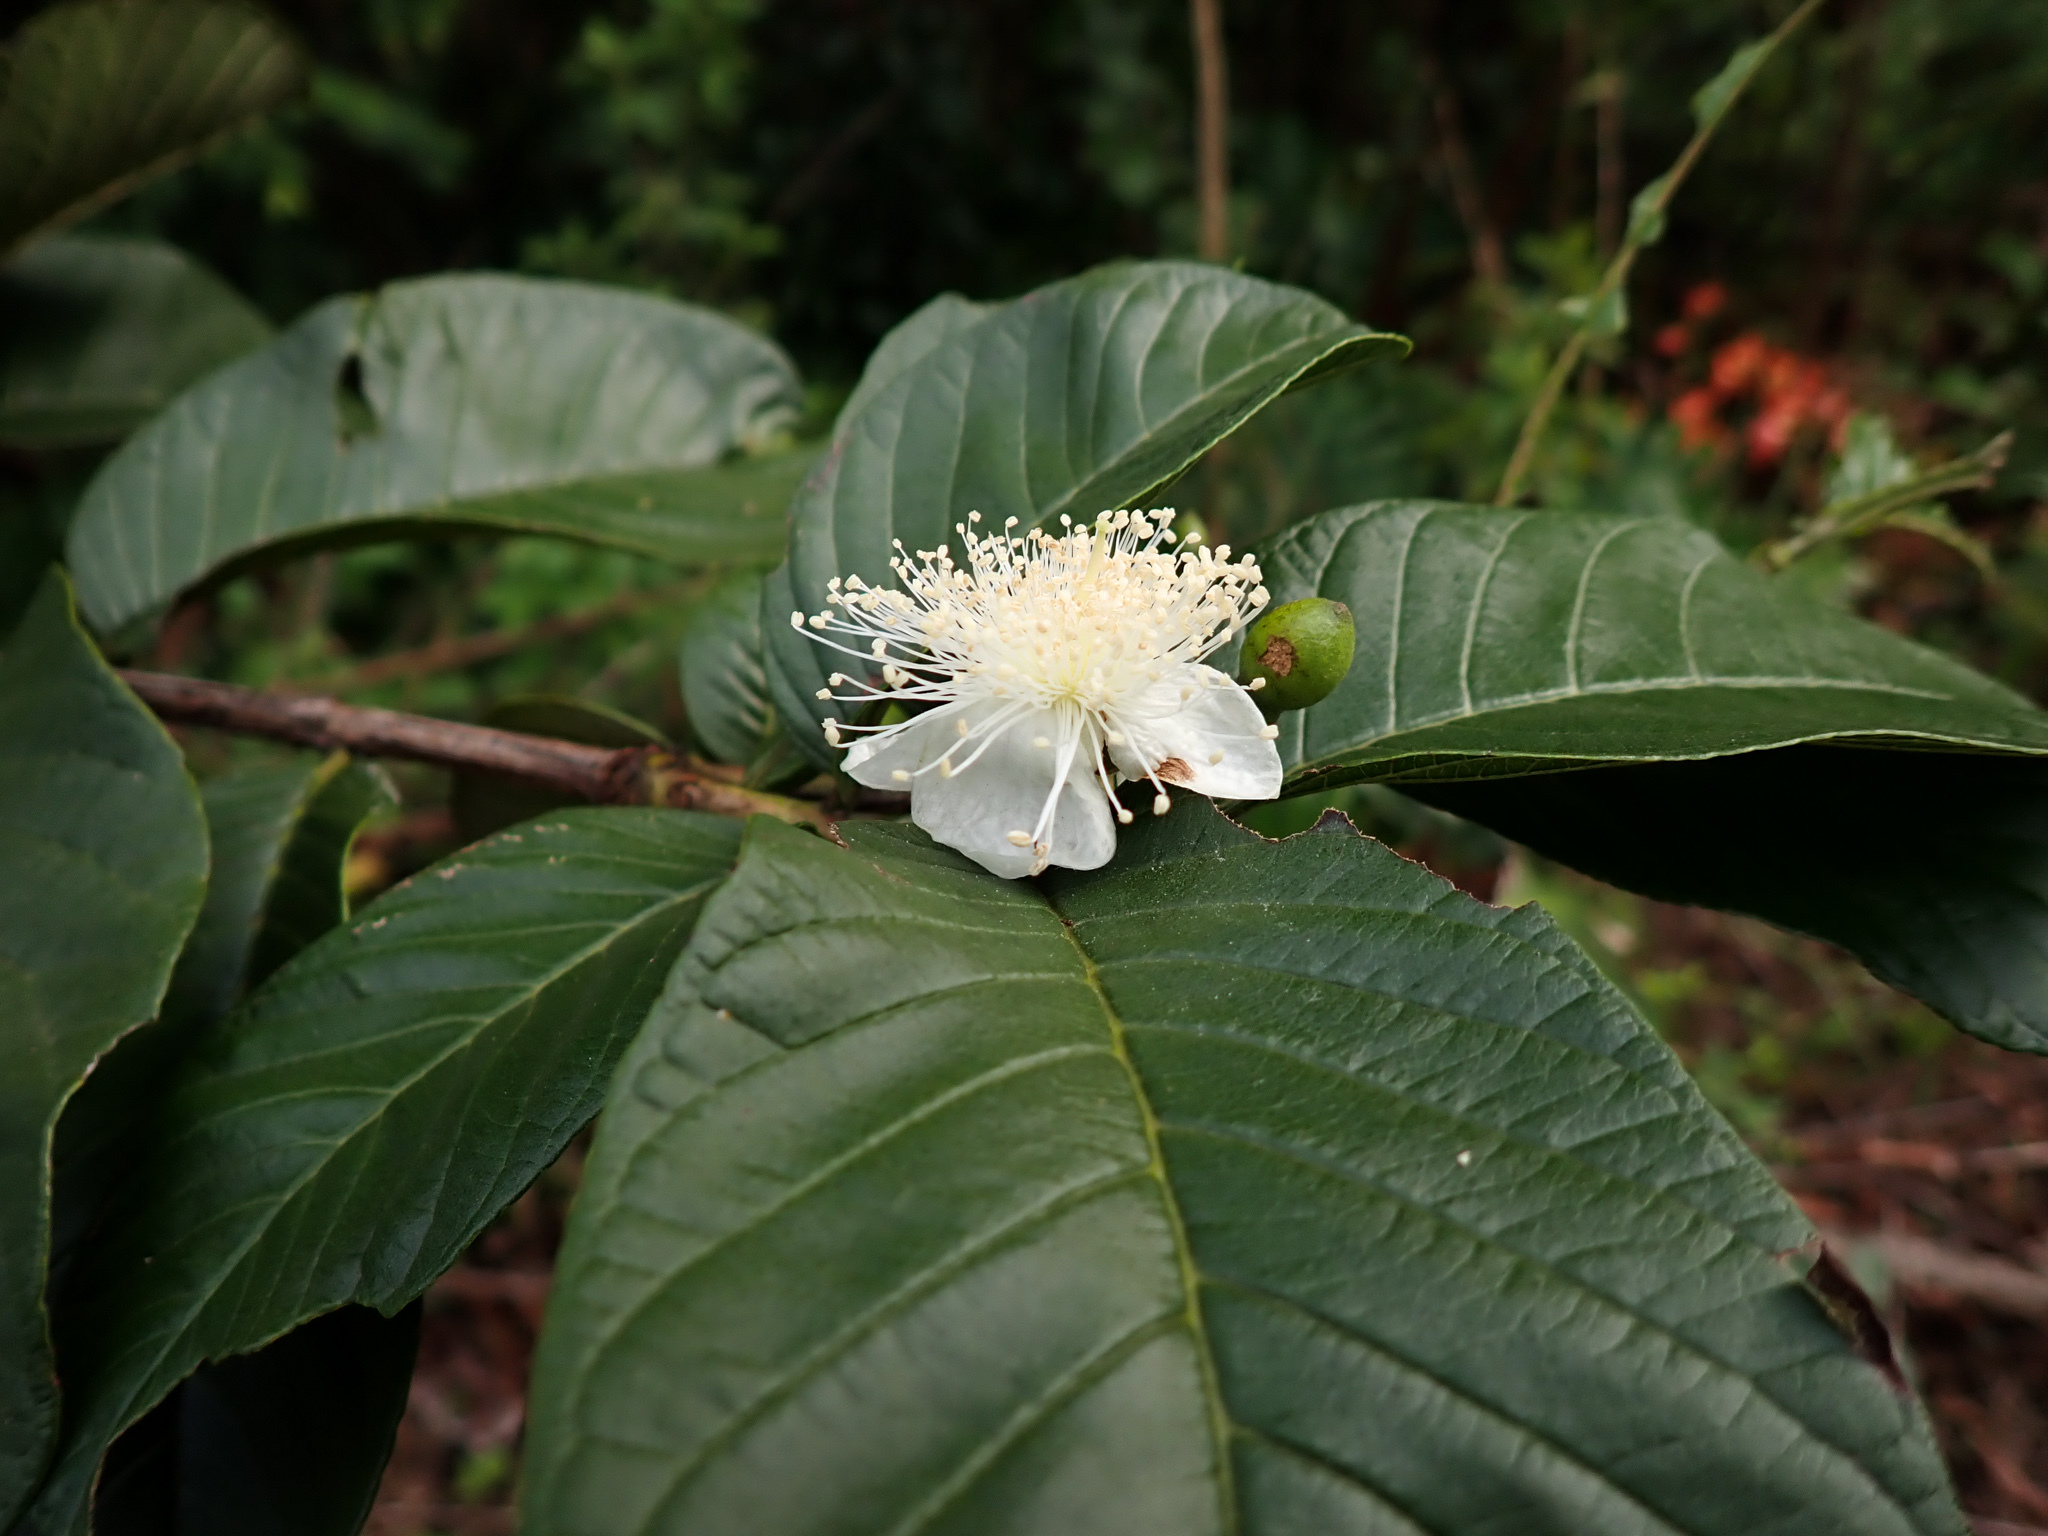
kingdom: Plantae
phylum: Tracheophyta
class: Magnoliopsida
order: Myrtales
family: Myrtaceae
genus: Psidium
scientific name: Psidium guajava
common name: Guava
